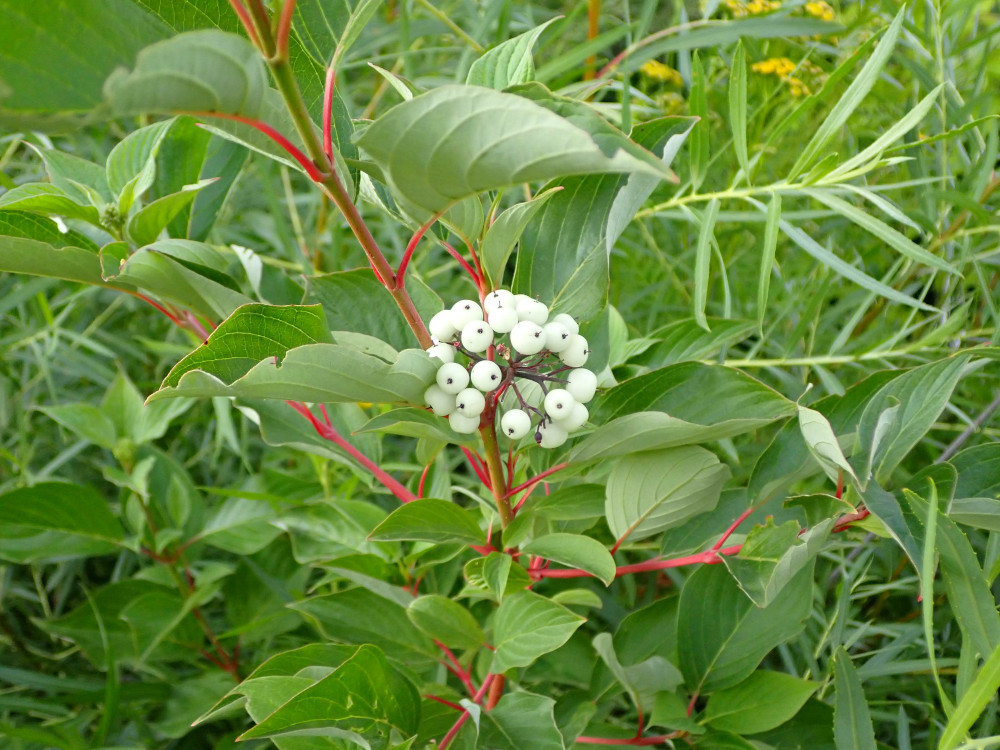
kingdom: Plantae
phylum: Tracheophyta
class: Magnoliopsida
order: Cornales
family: Cornaceae
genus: Cornus
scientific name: Cornus sericea
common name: Red-osier dogwood
